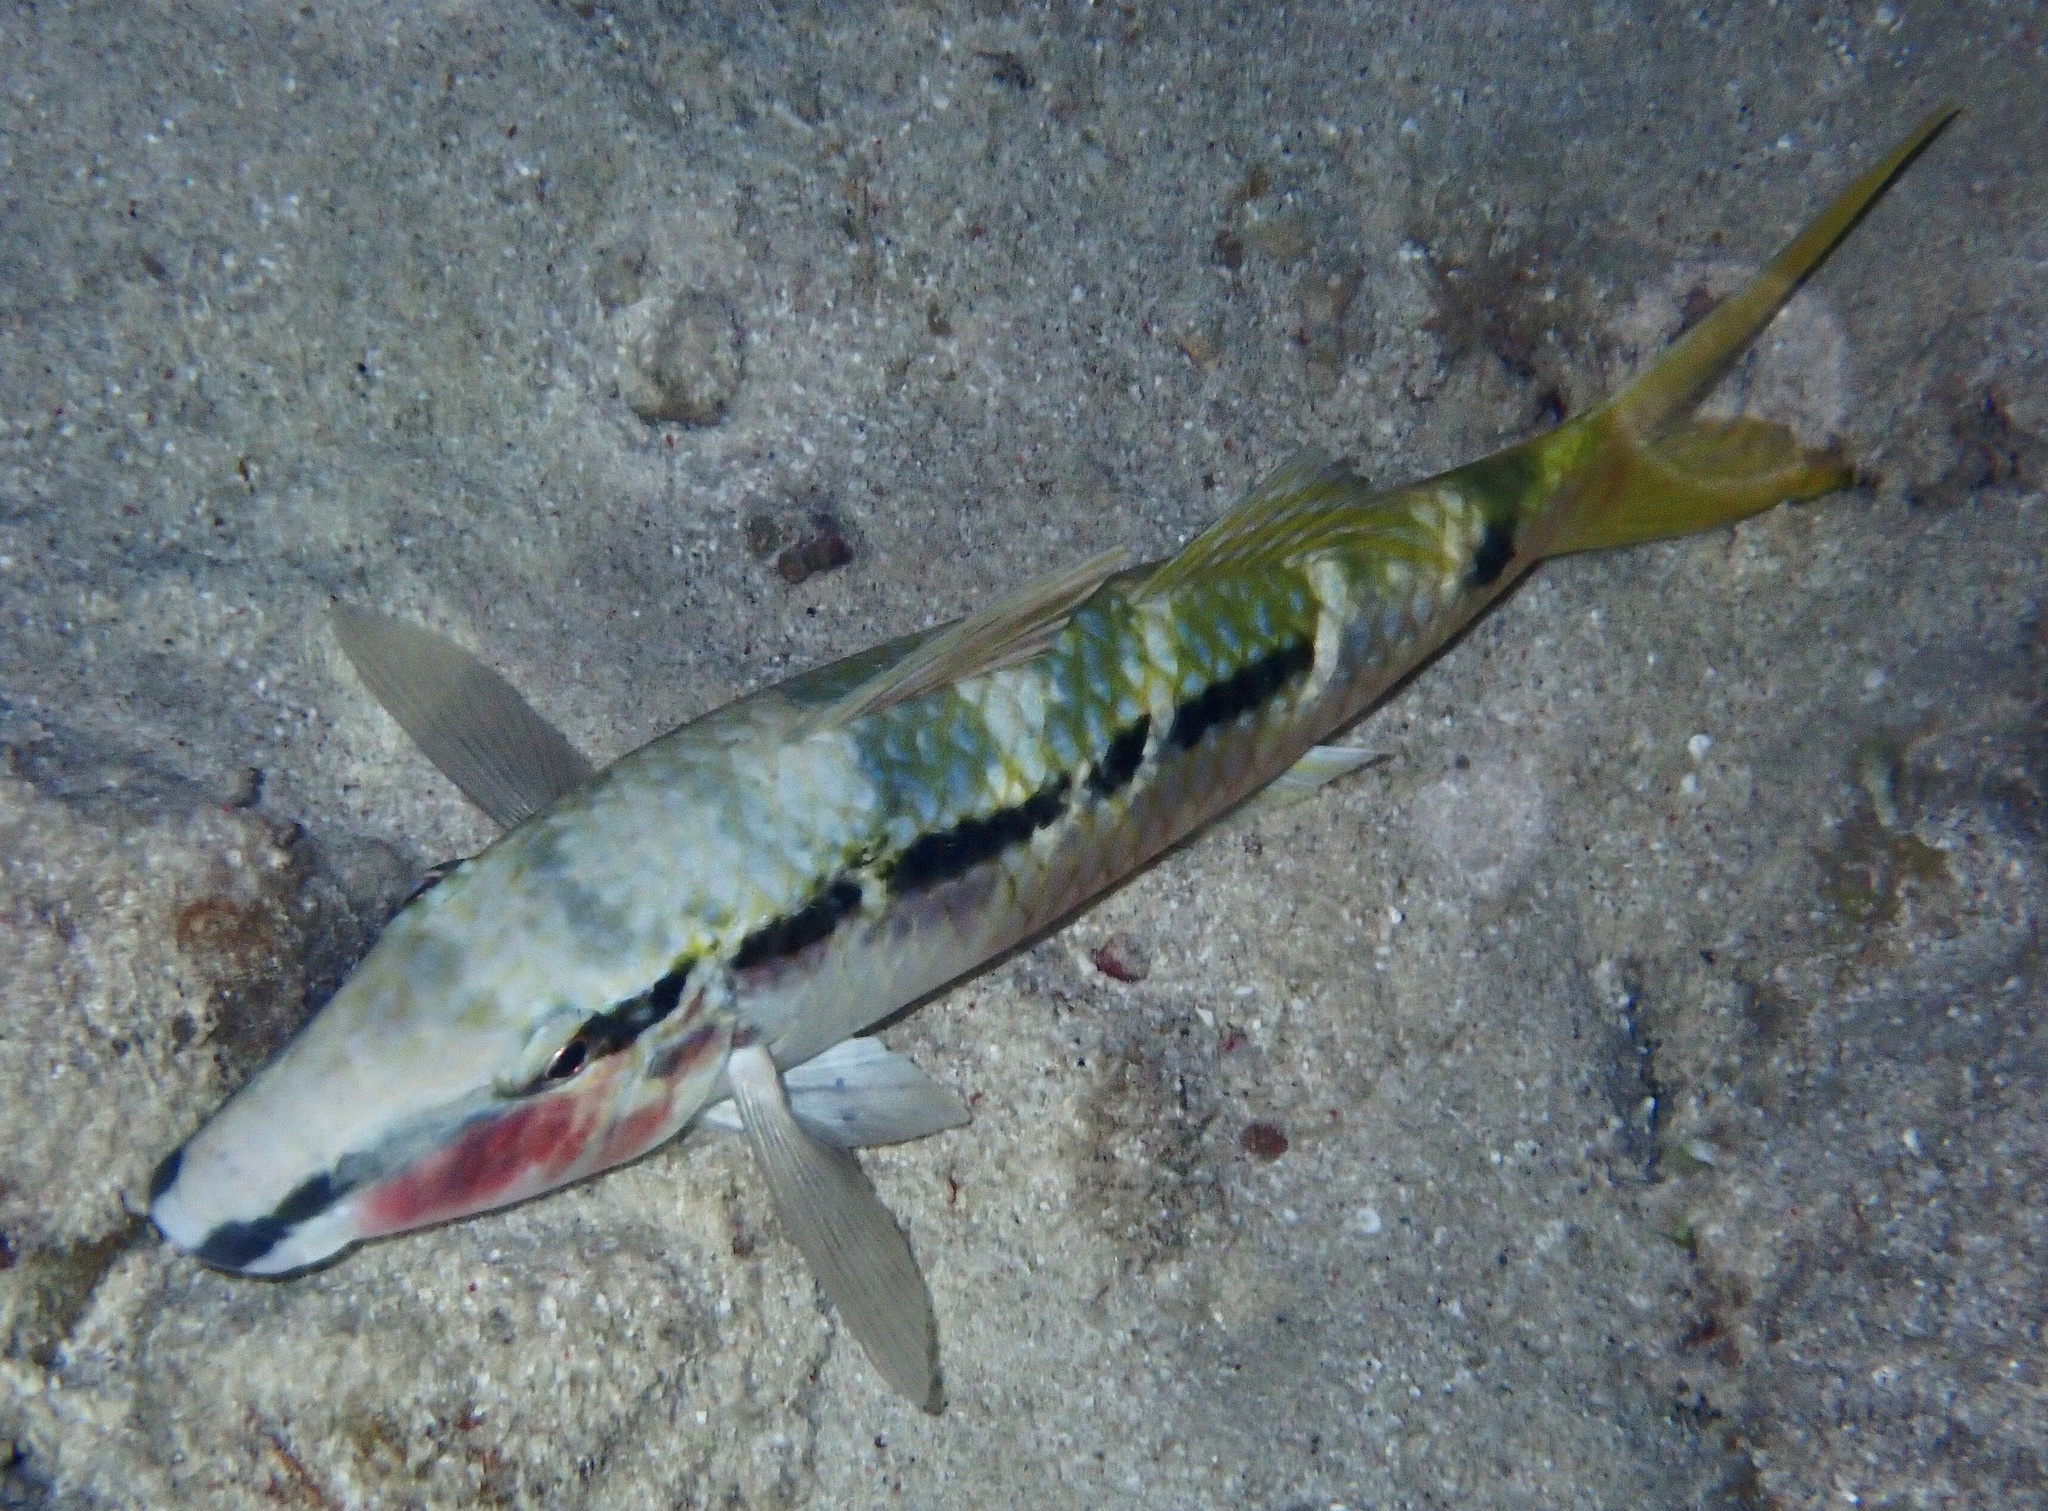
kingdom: Animalia
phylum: Chordata
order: Perciformes
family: Mullidae
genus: Parupeneus
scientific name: Parupeneus forsskali
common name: Red sea goatfish
